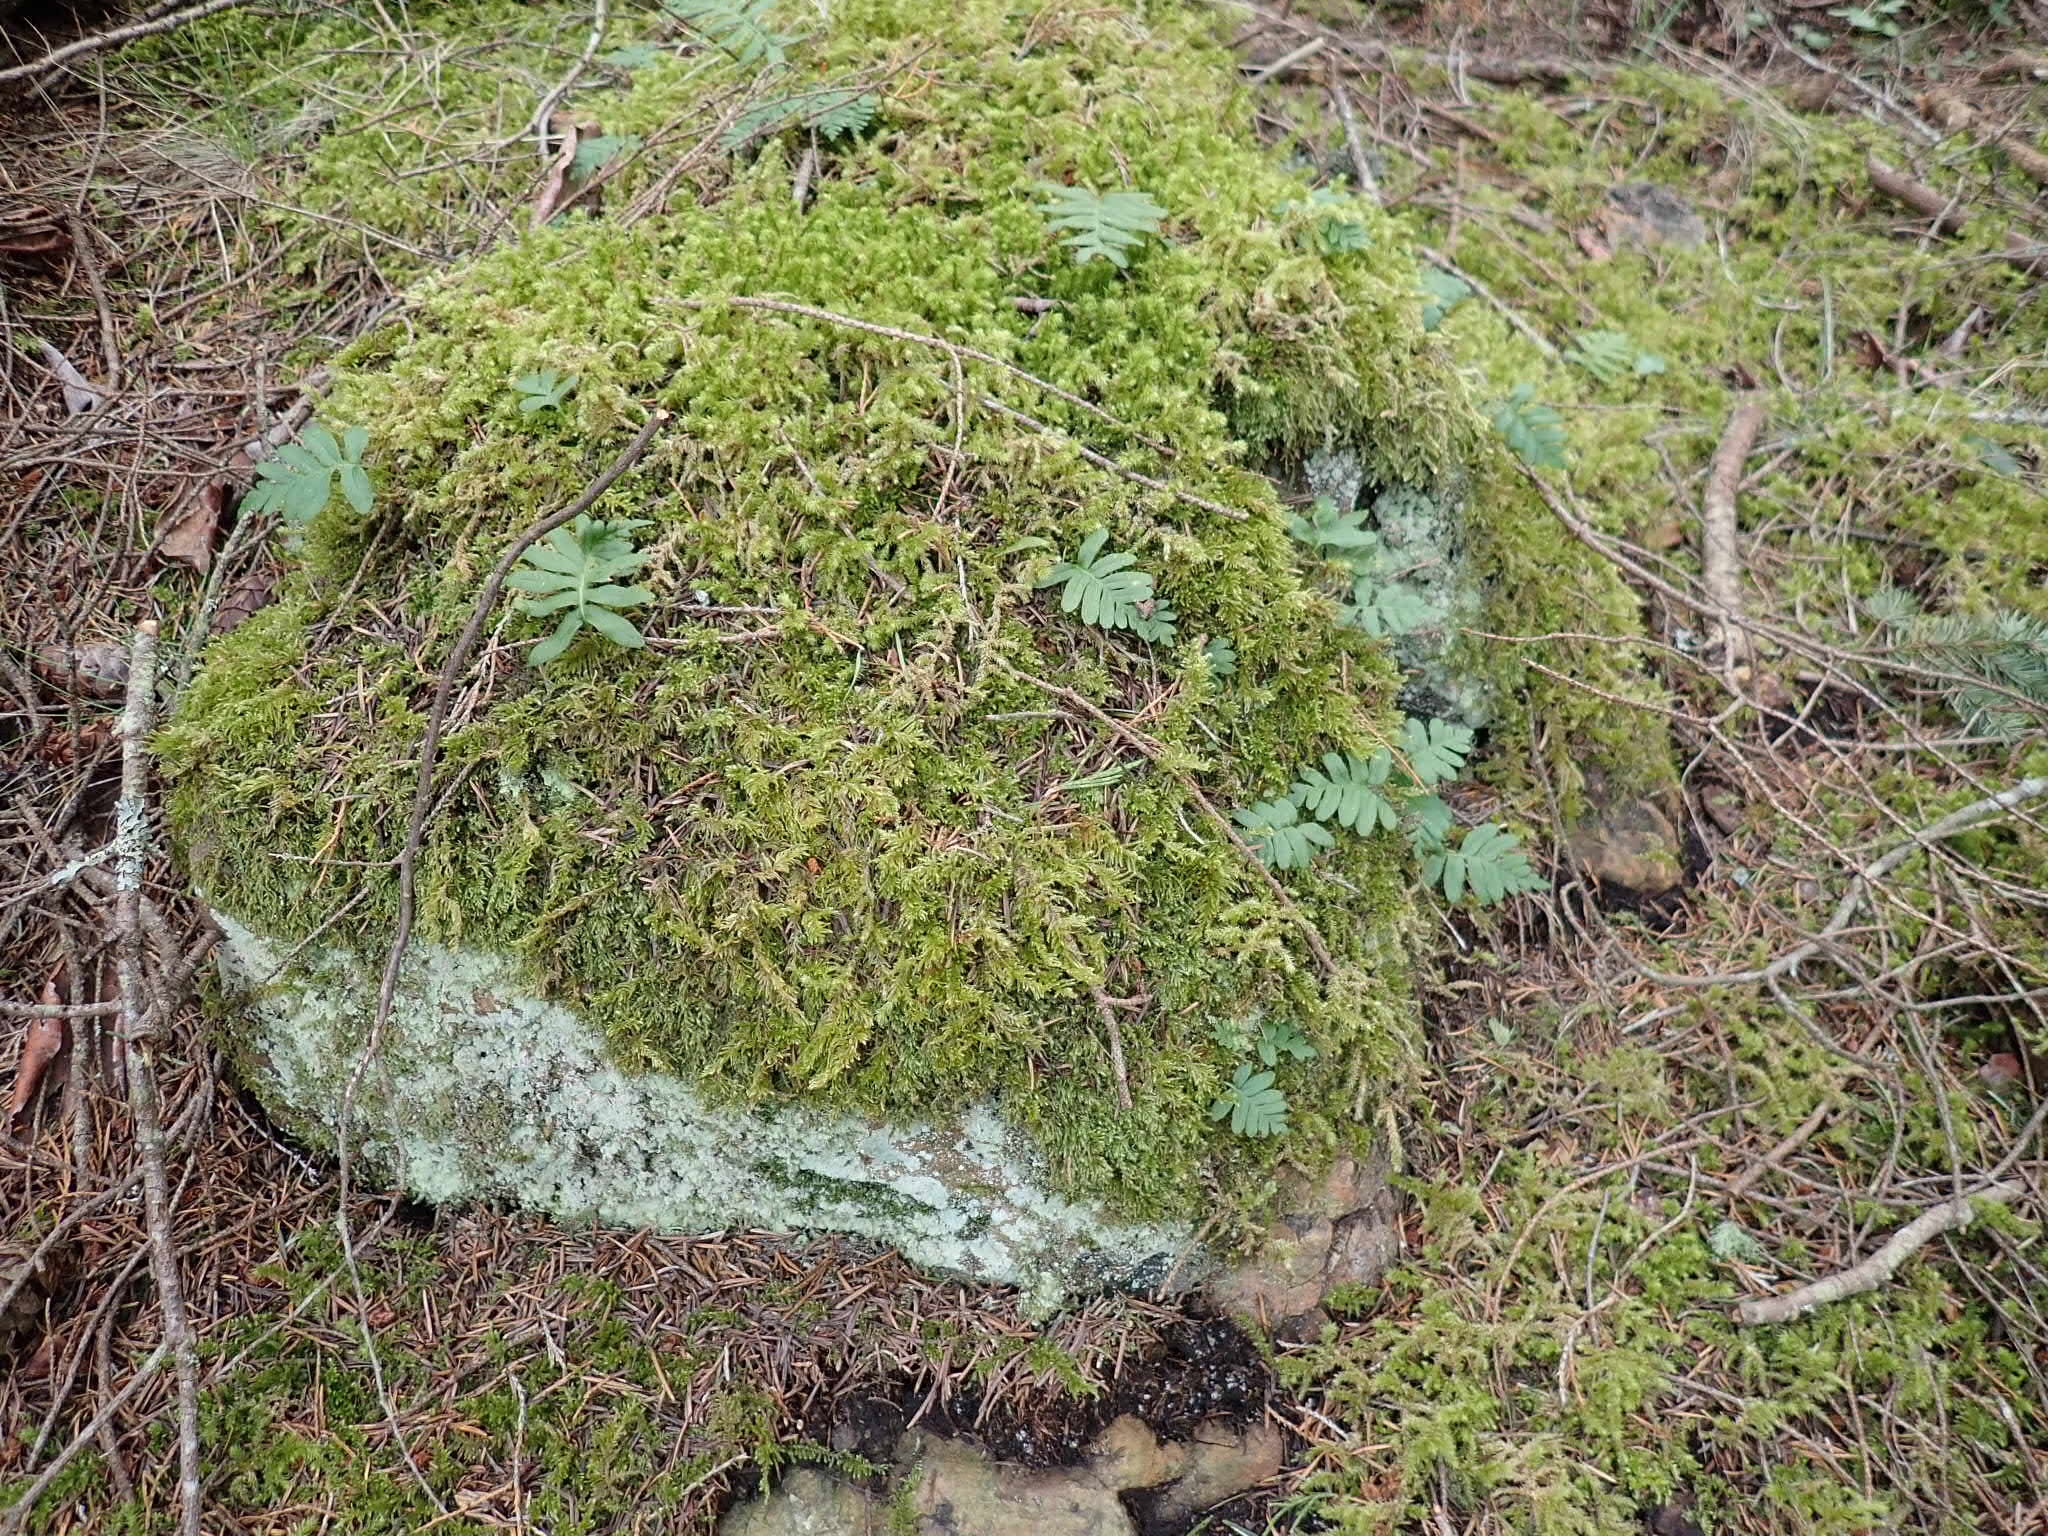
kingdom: Plantae
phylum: Tracheophyta
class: Polypodiopsida
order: Polypodiales
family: Polypodiaceae
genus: Polypodium
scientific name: Polypodium glycyrrhiza
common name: Licorice fern
